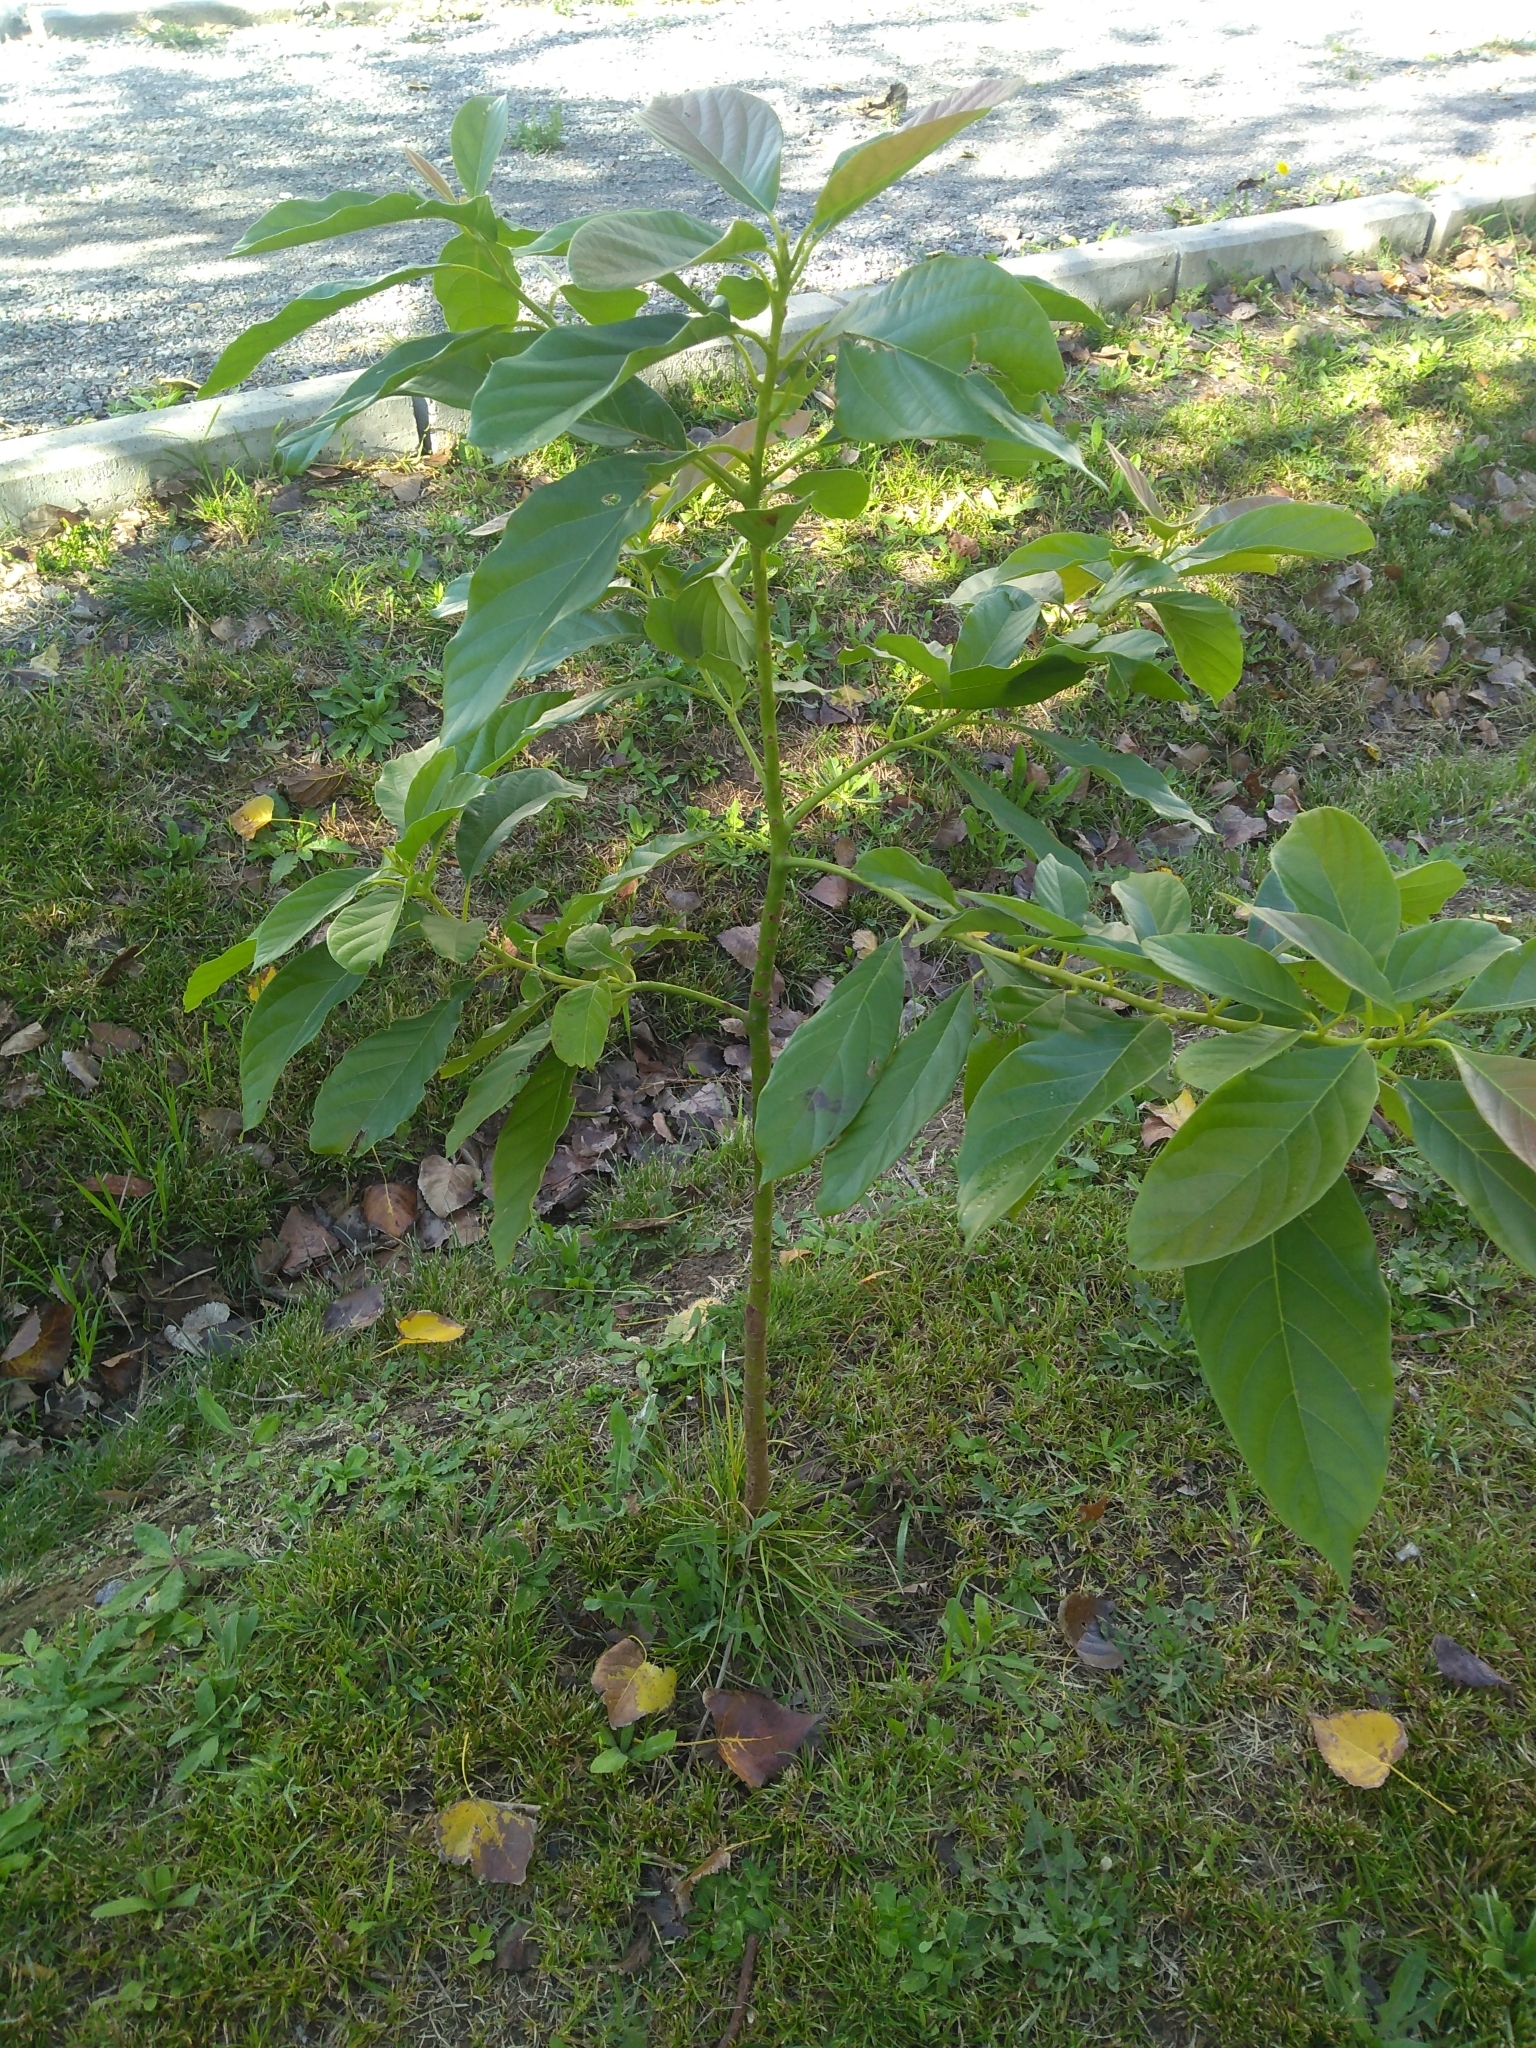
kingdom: Plantae
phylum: Tracheophyta
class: Magnoliopsida
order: Laurales
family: Lauraceae
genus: Persea
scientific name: Persea americana
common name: Avocado
